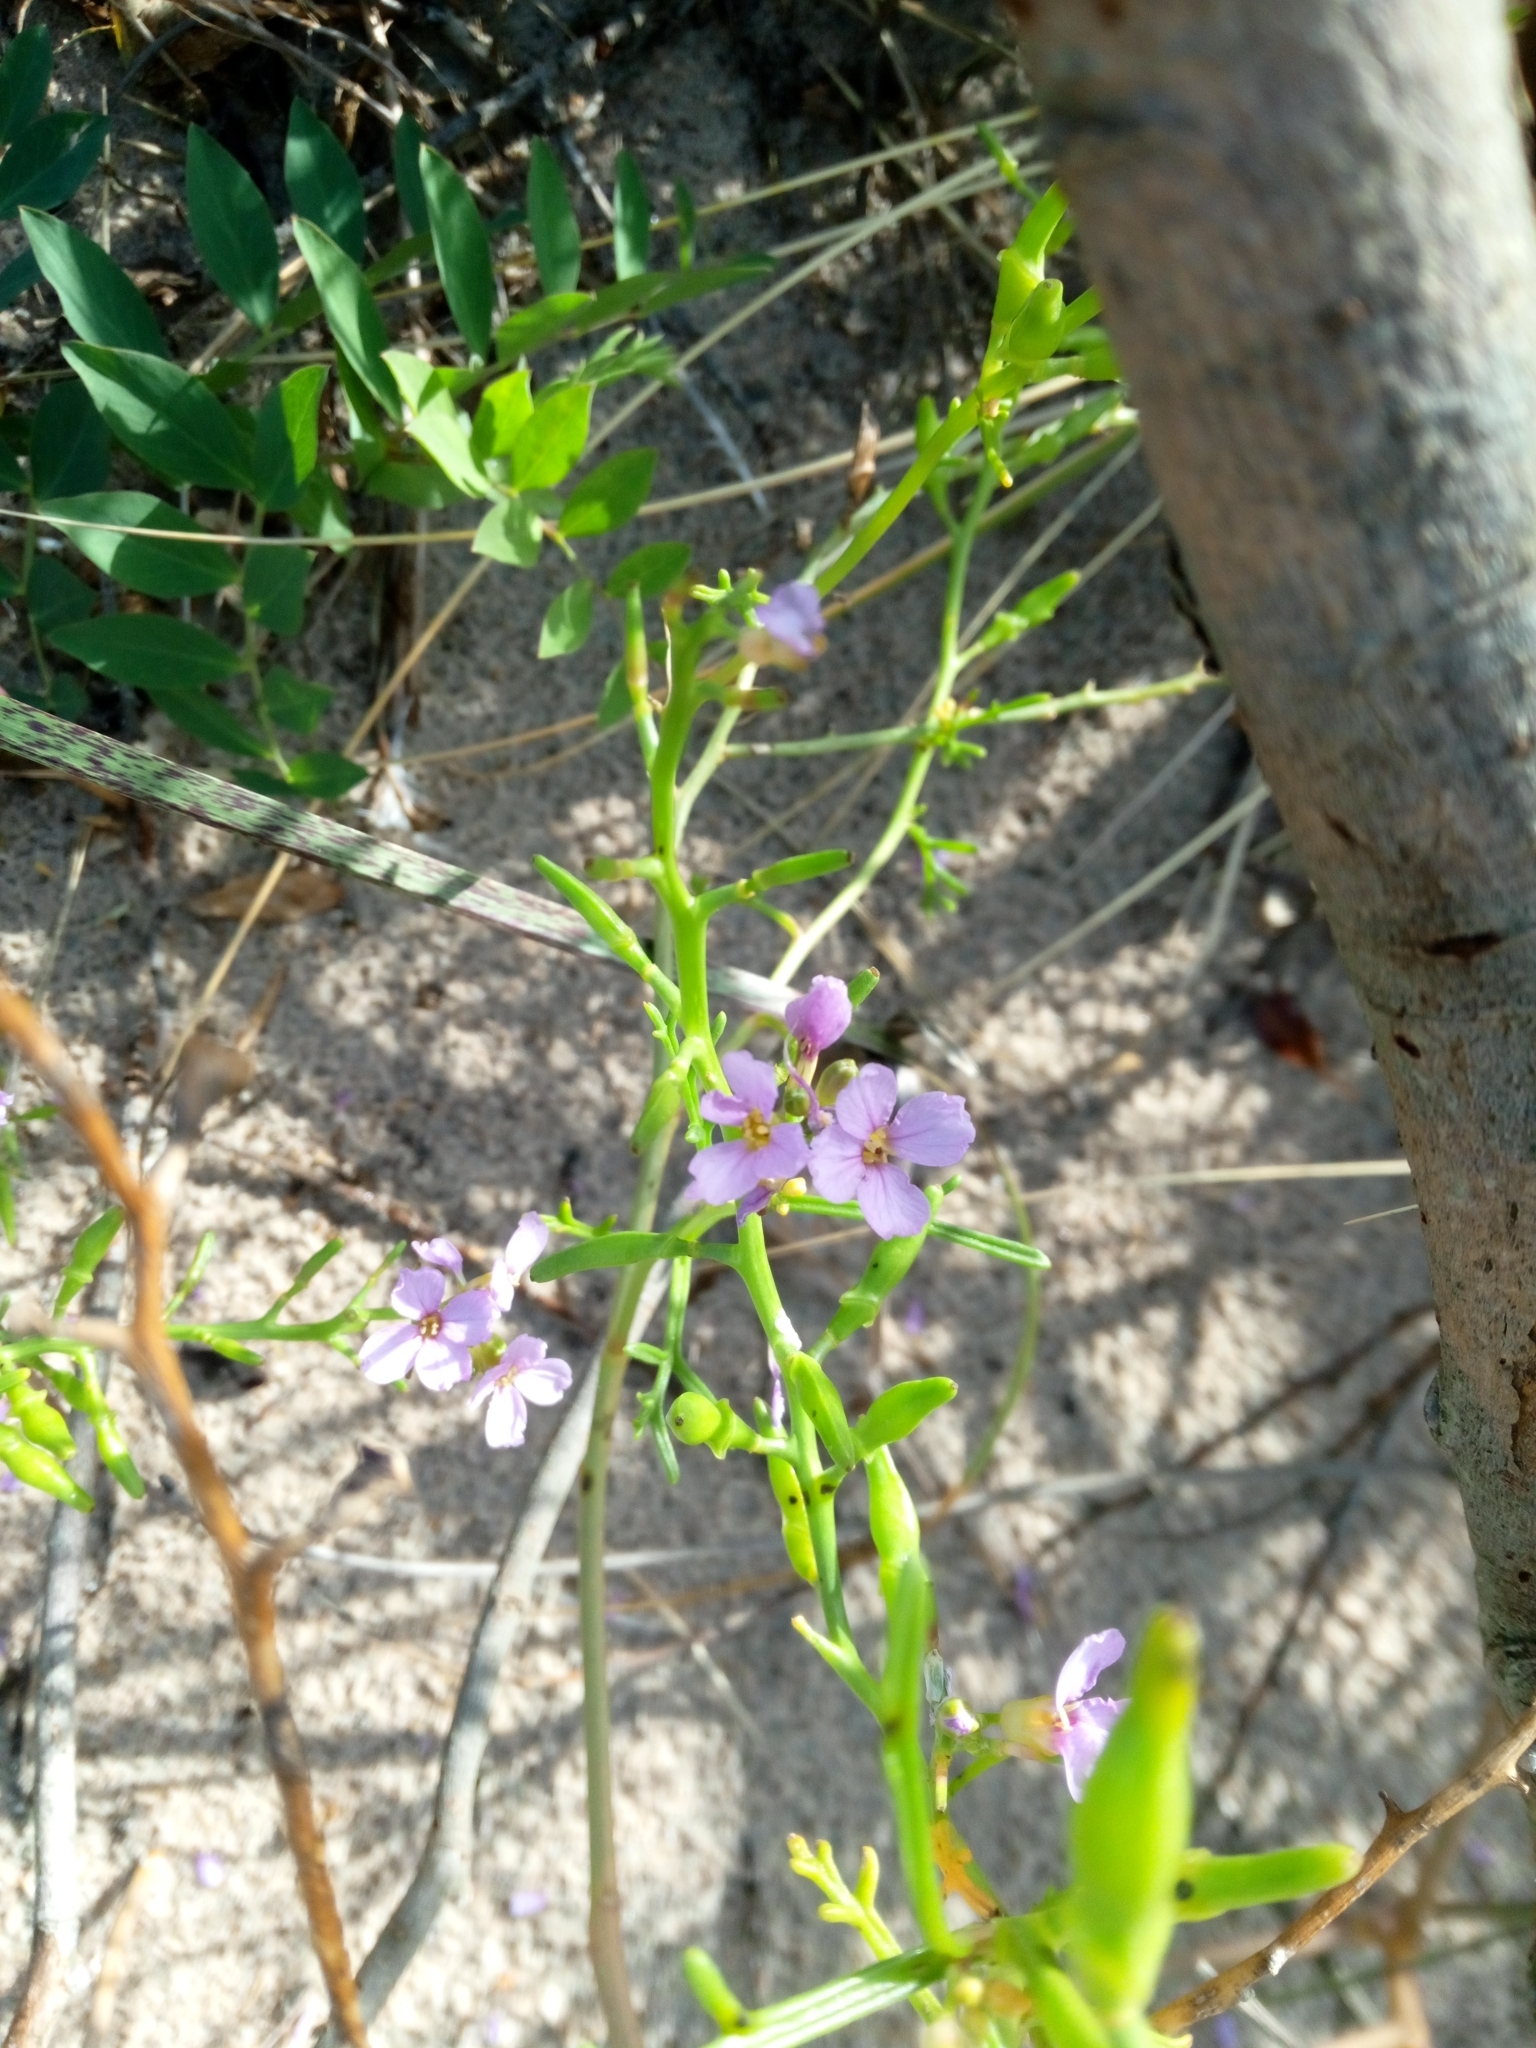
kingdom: Plantae
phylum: Tracheophyta
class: Magnoliopsida
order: Brassicales
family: Brassicaceae
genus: Cakile
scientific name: Cakile maritima
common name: Sea rocket
